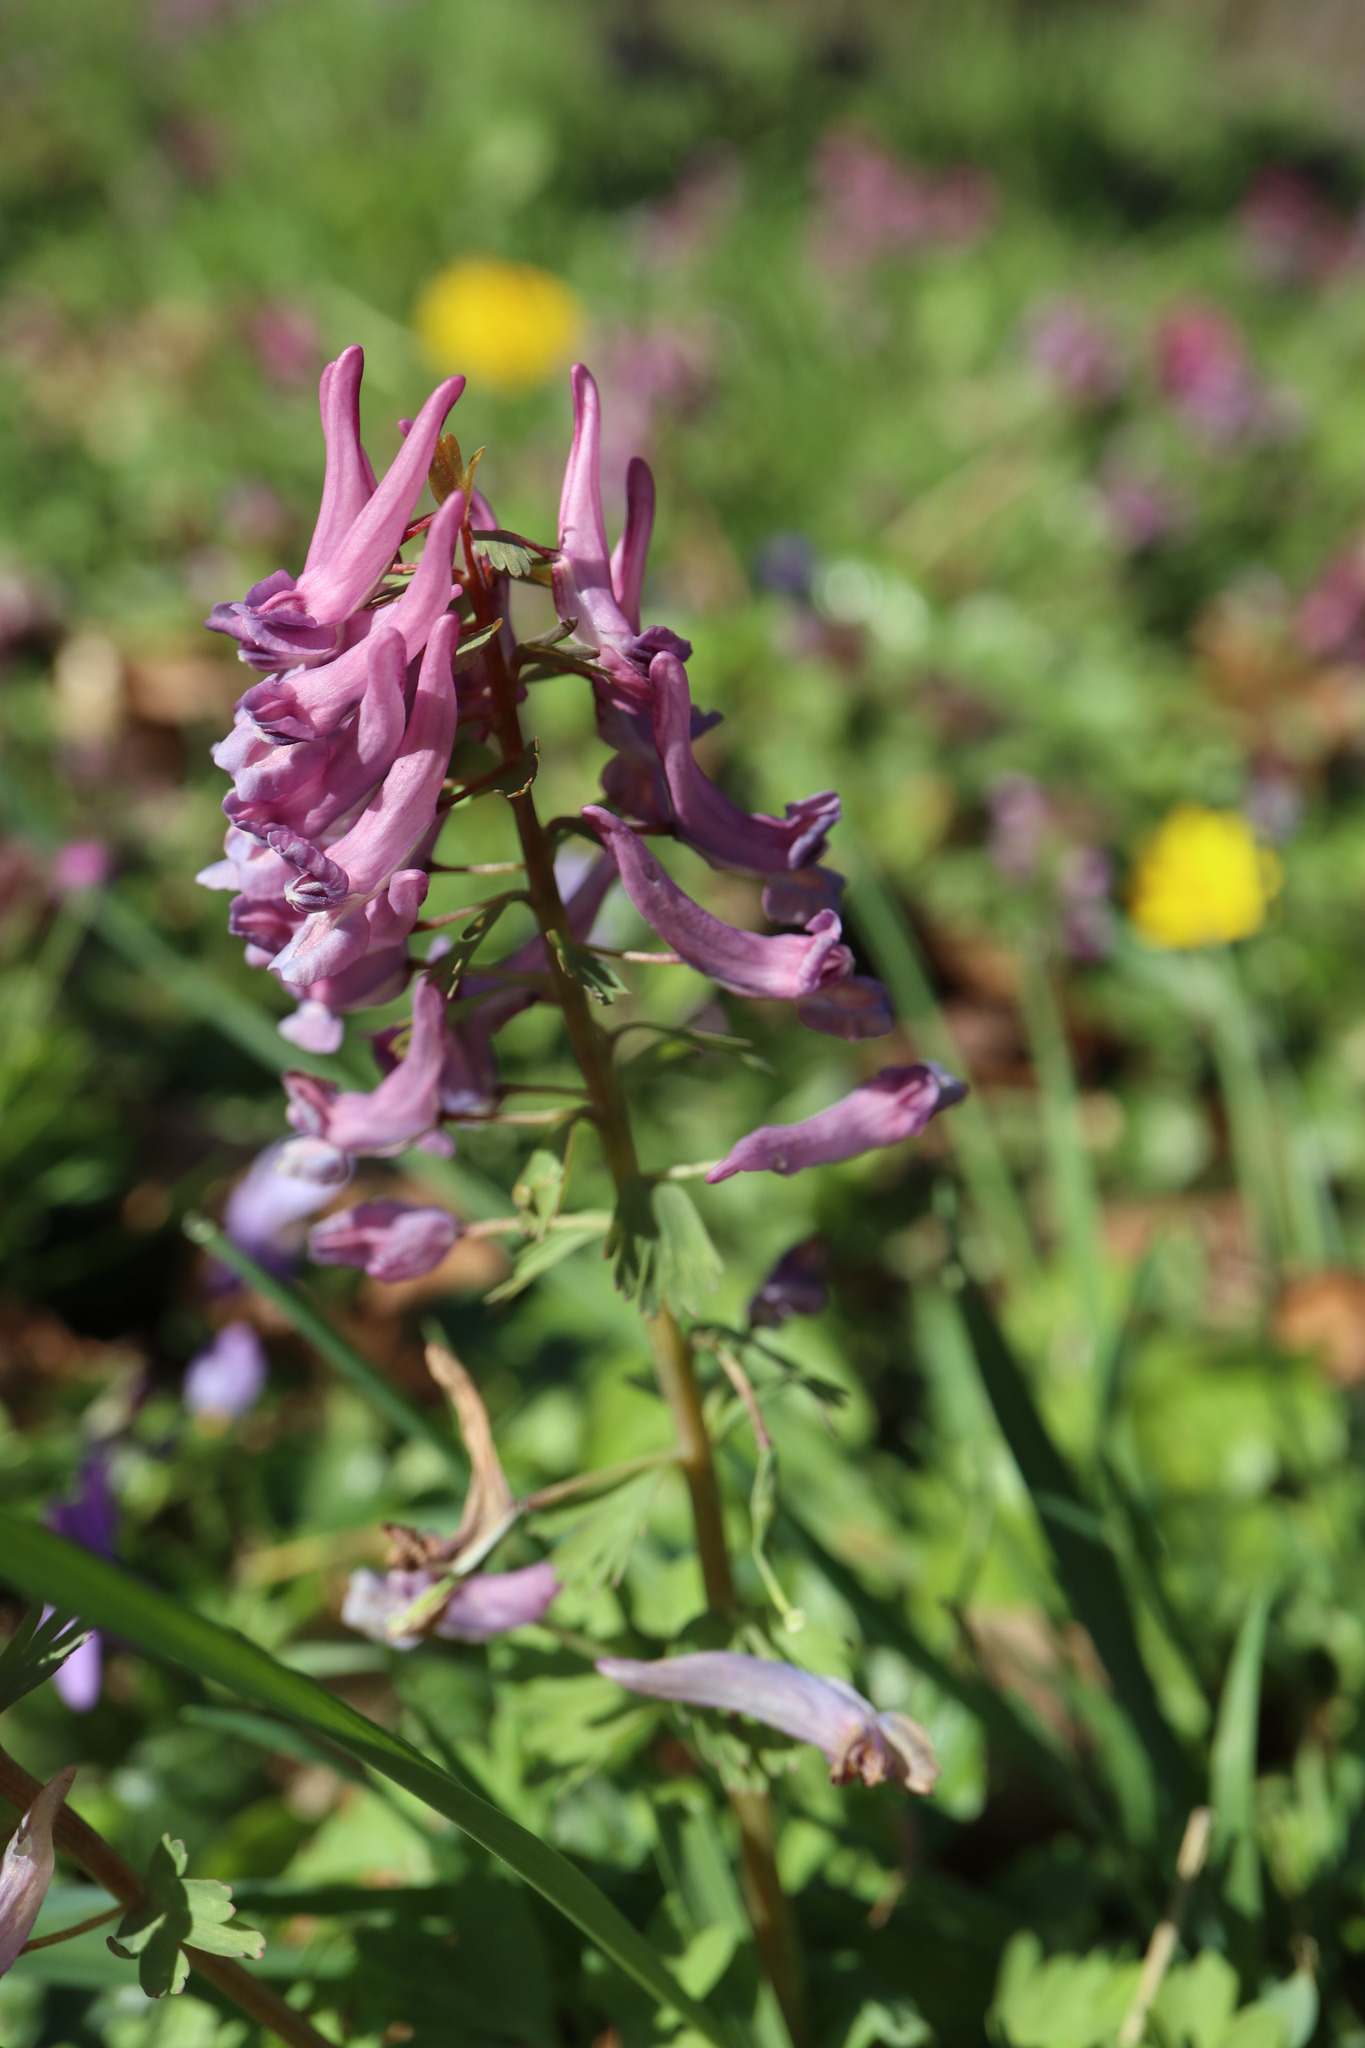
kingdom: Plantae
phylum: Tracheophyta
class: Magnoliopsida
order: Ranunculales
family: Papaveraceae
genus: Corydalis
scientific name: Corydalis solida
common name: Bird-in-a-bush
